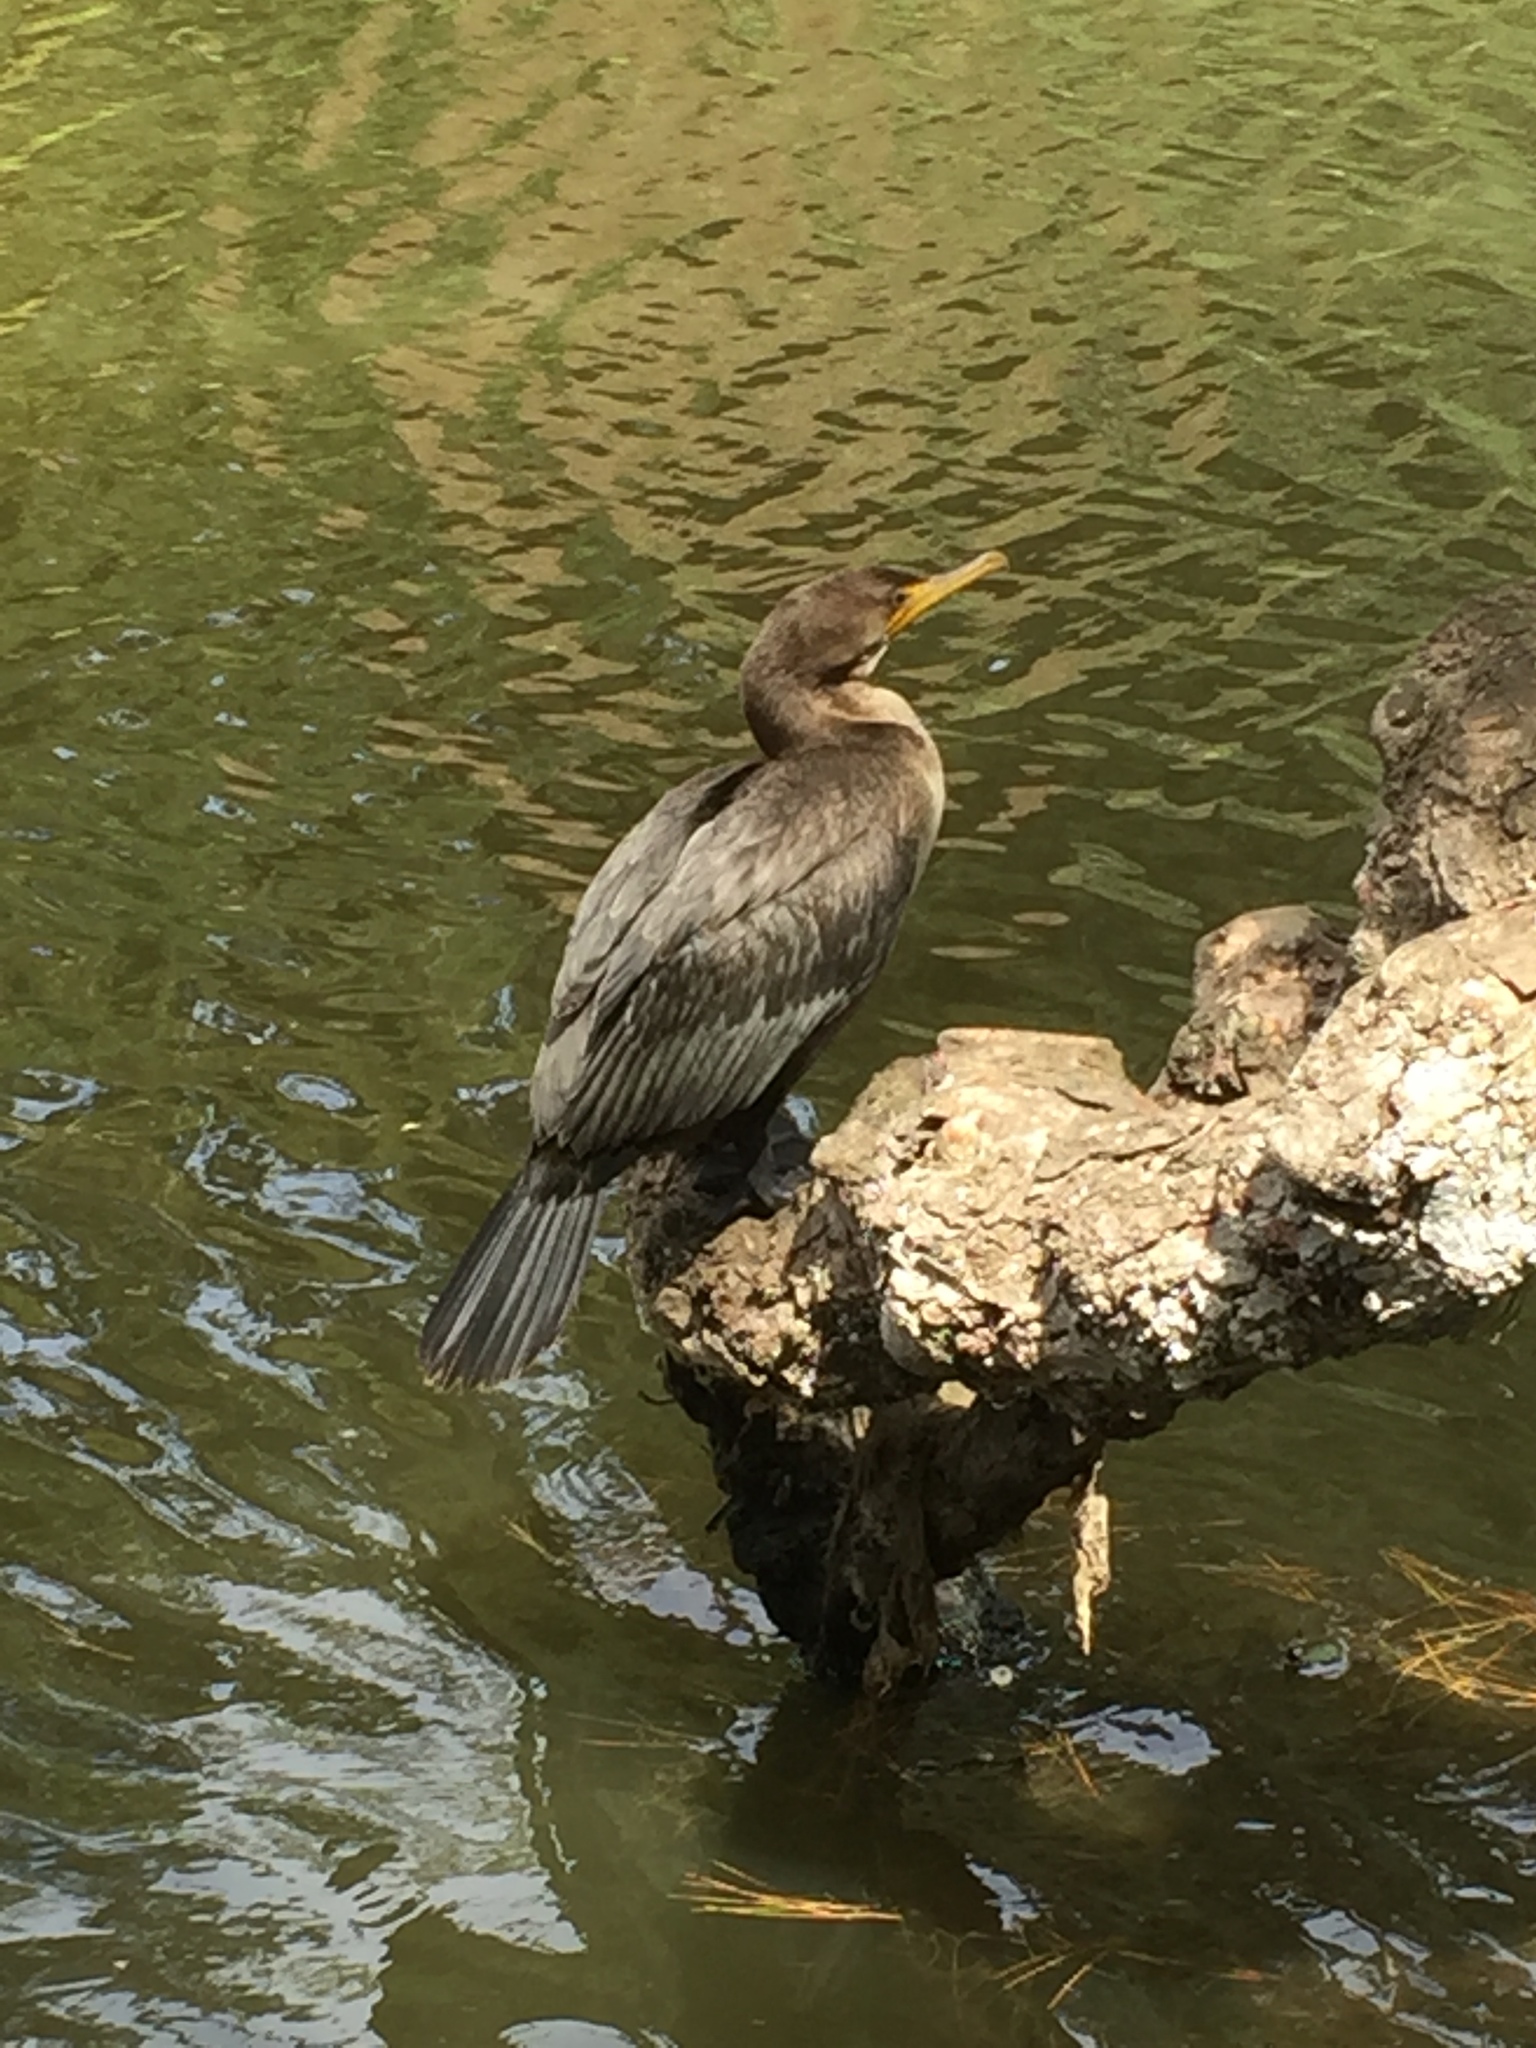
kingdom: Animalia
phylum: Chordata
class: Aves
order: Suliformes
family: Phalacrocoracidae
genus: Phalacrocorax
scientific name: Phalacrocorax auritus
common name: Double-crested cormorant
